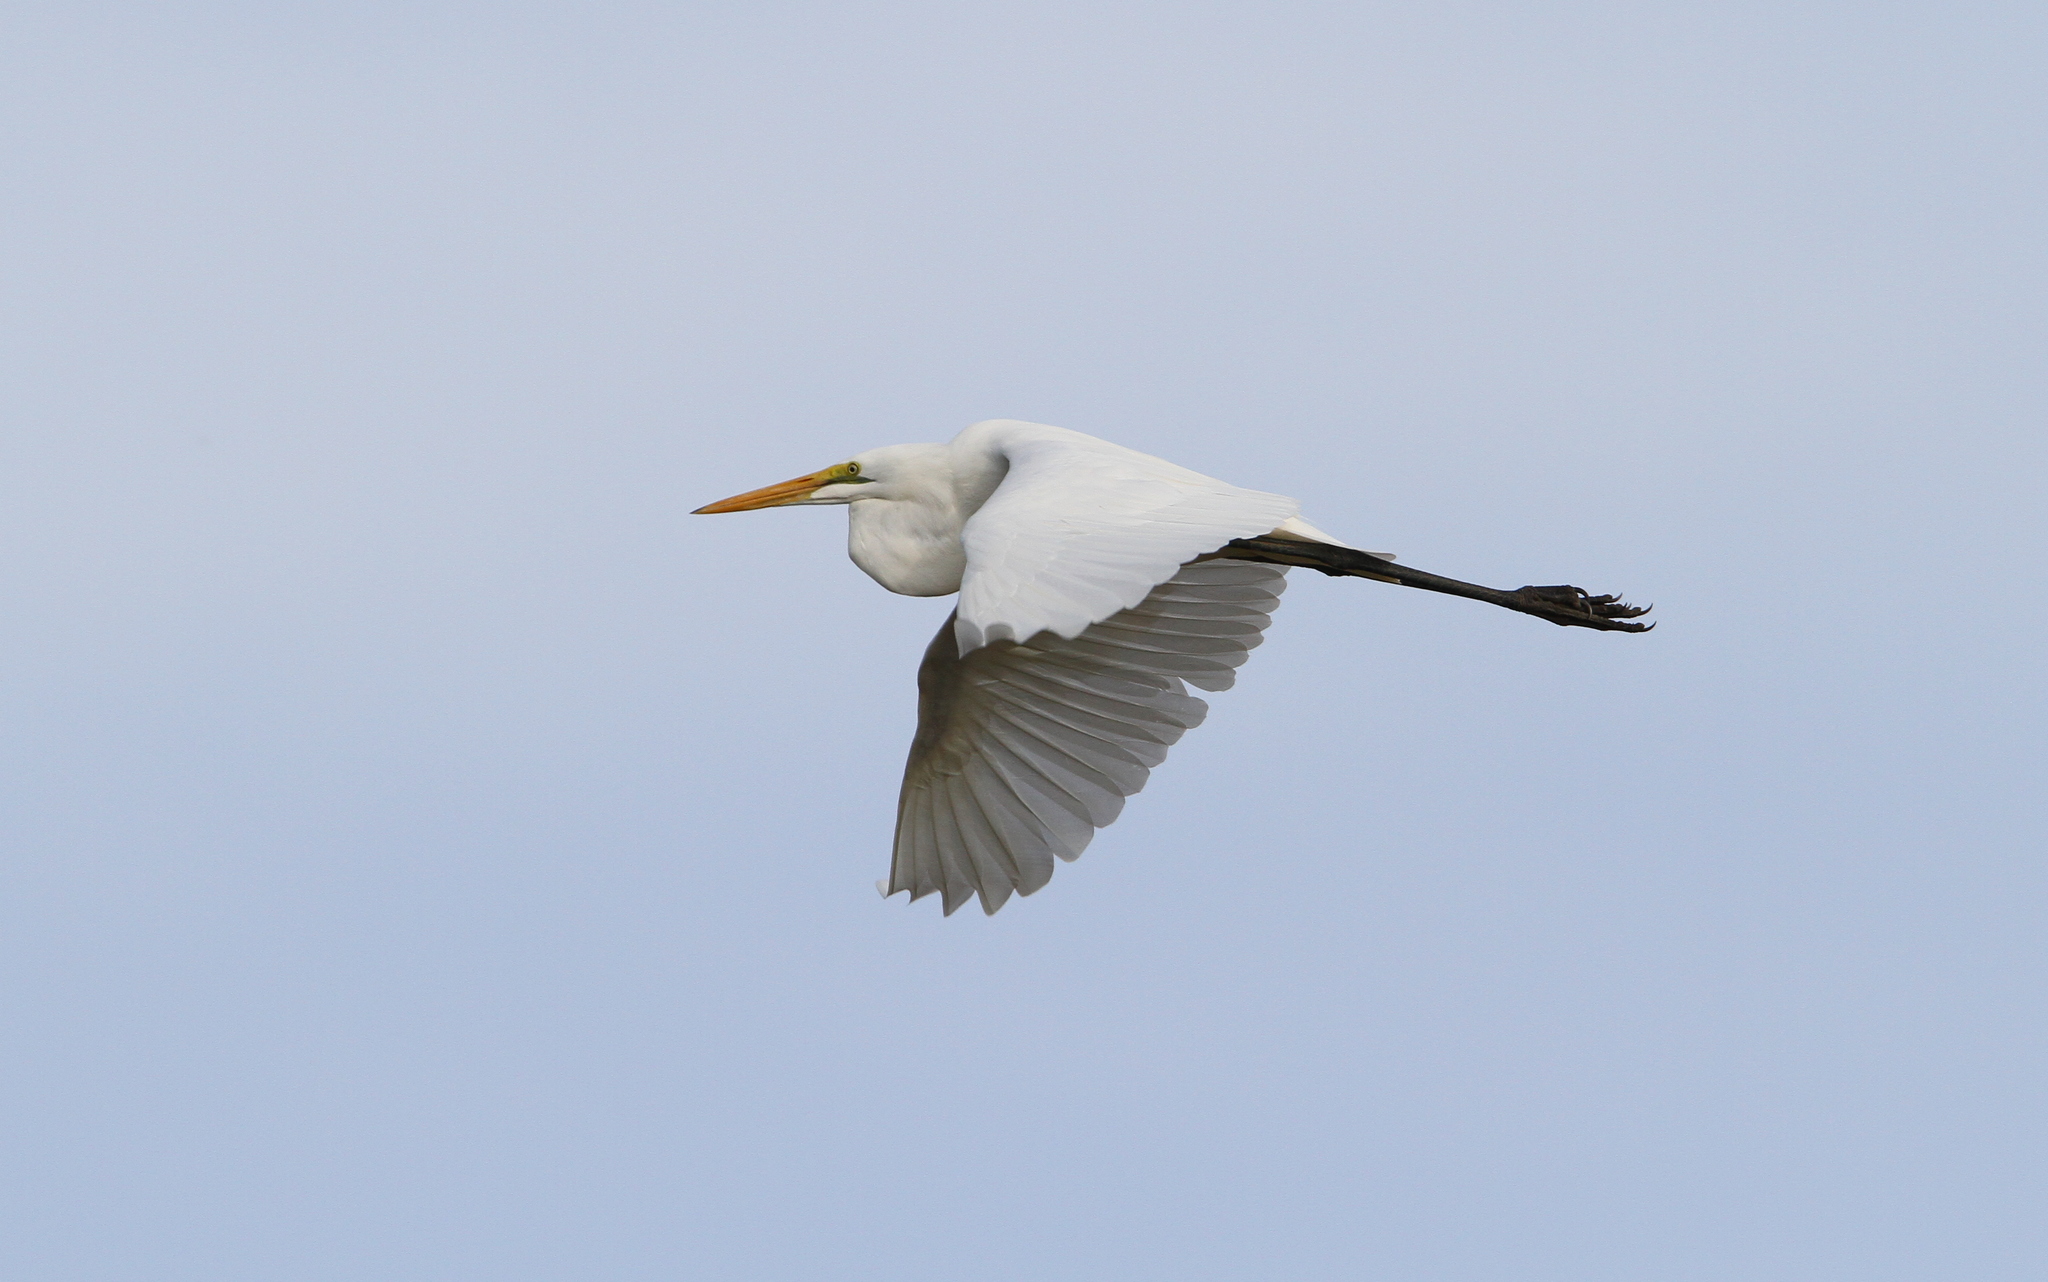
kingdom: Animalia
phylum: Chordata
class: Aves
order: Pelecaniformes
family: Ardeidae
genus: Ardea
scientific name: Ardea alba
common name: Great egret
